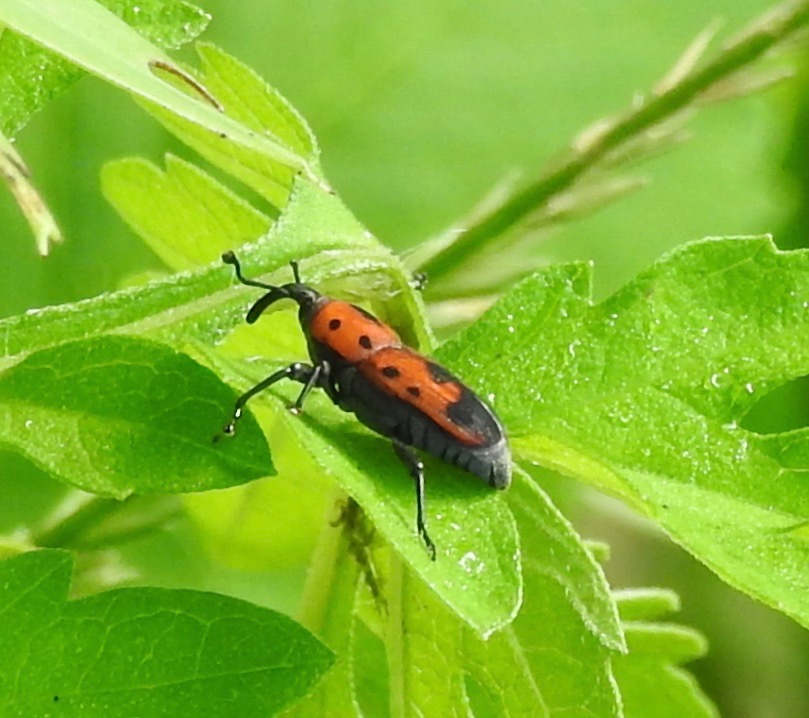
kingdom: Animalia
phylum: Arthropoda
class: Insecta
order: Coleoptera
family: Dryophthoridae
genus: Rhodobaenus
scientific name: Rhodobaenus quinquepunctatus
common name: Cocklebur weevil
